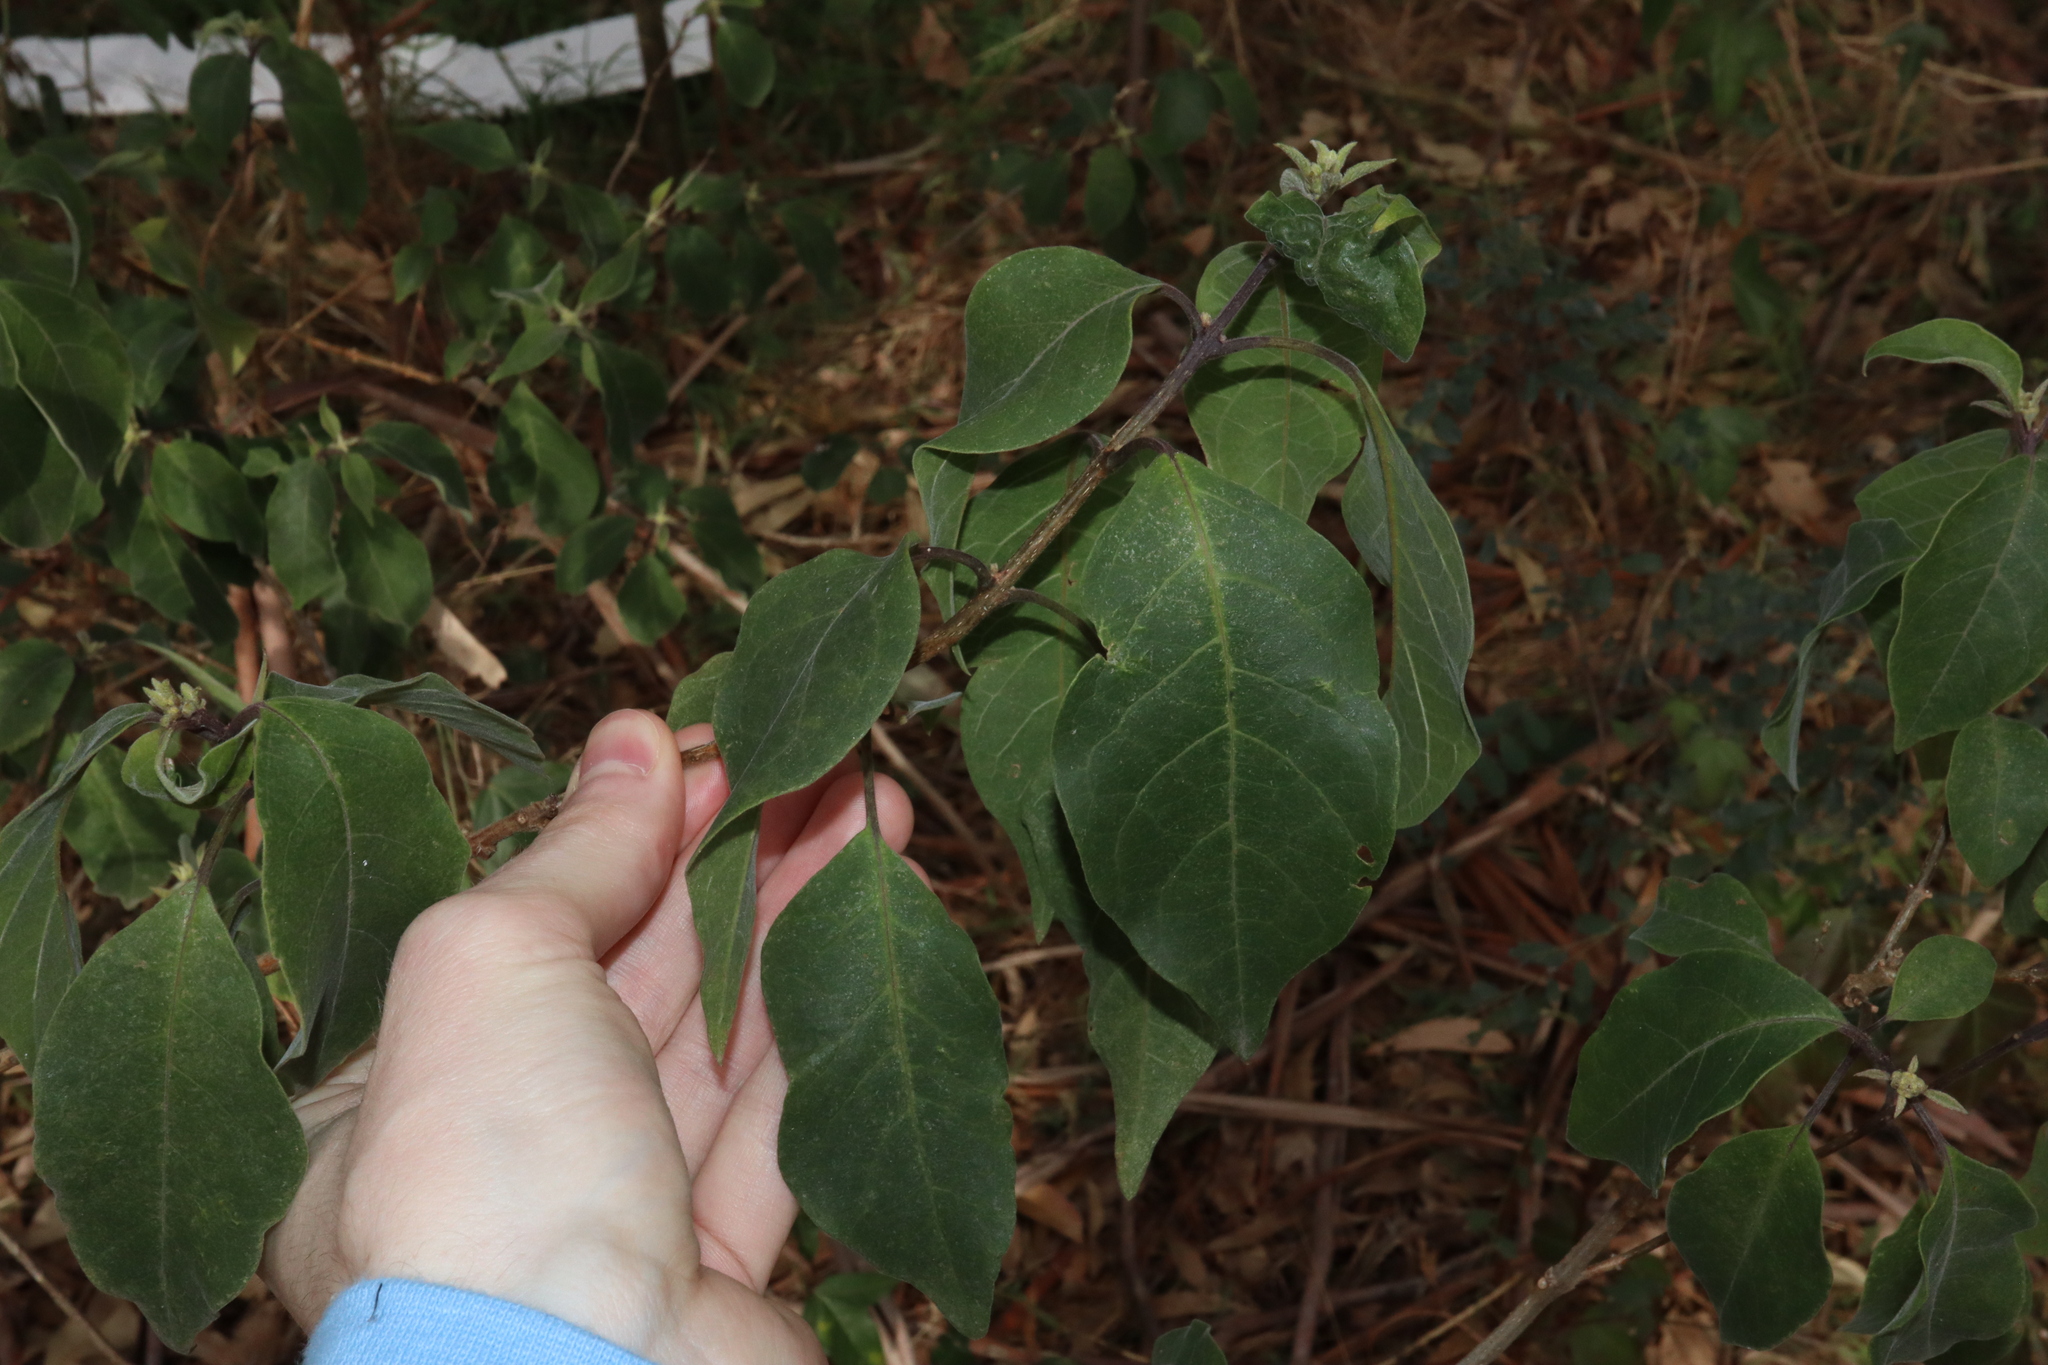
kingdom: Plantae
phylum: Tracheophyta
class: Magnoliopsida
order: Lamiales
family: Lamiaceae
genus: Clerodendrum
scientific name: Clerodendrum tomentosum
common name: Hairy clerodendrum
